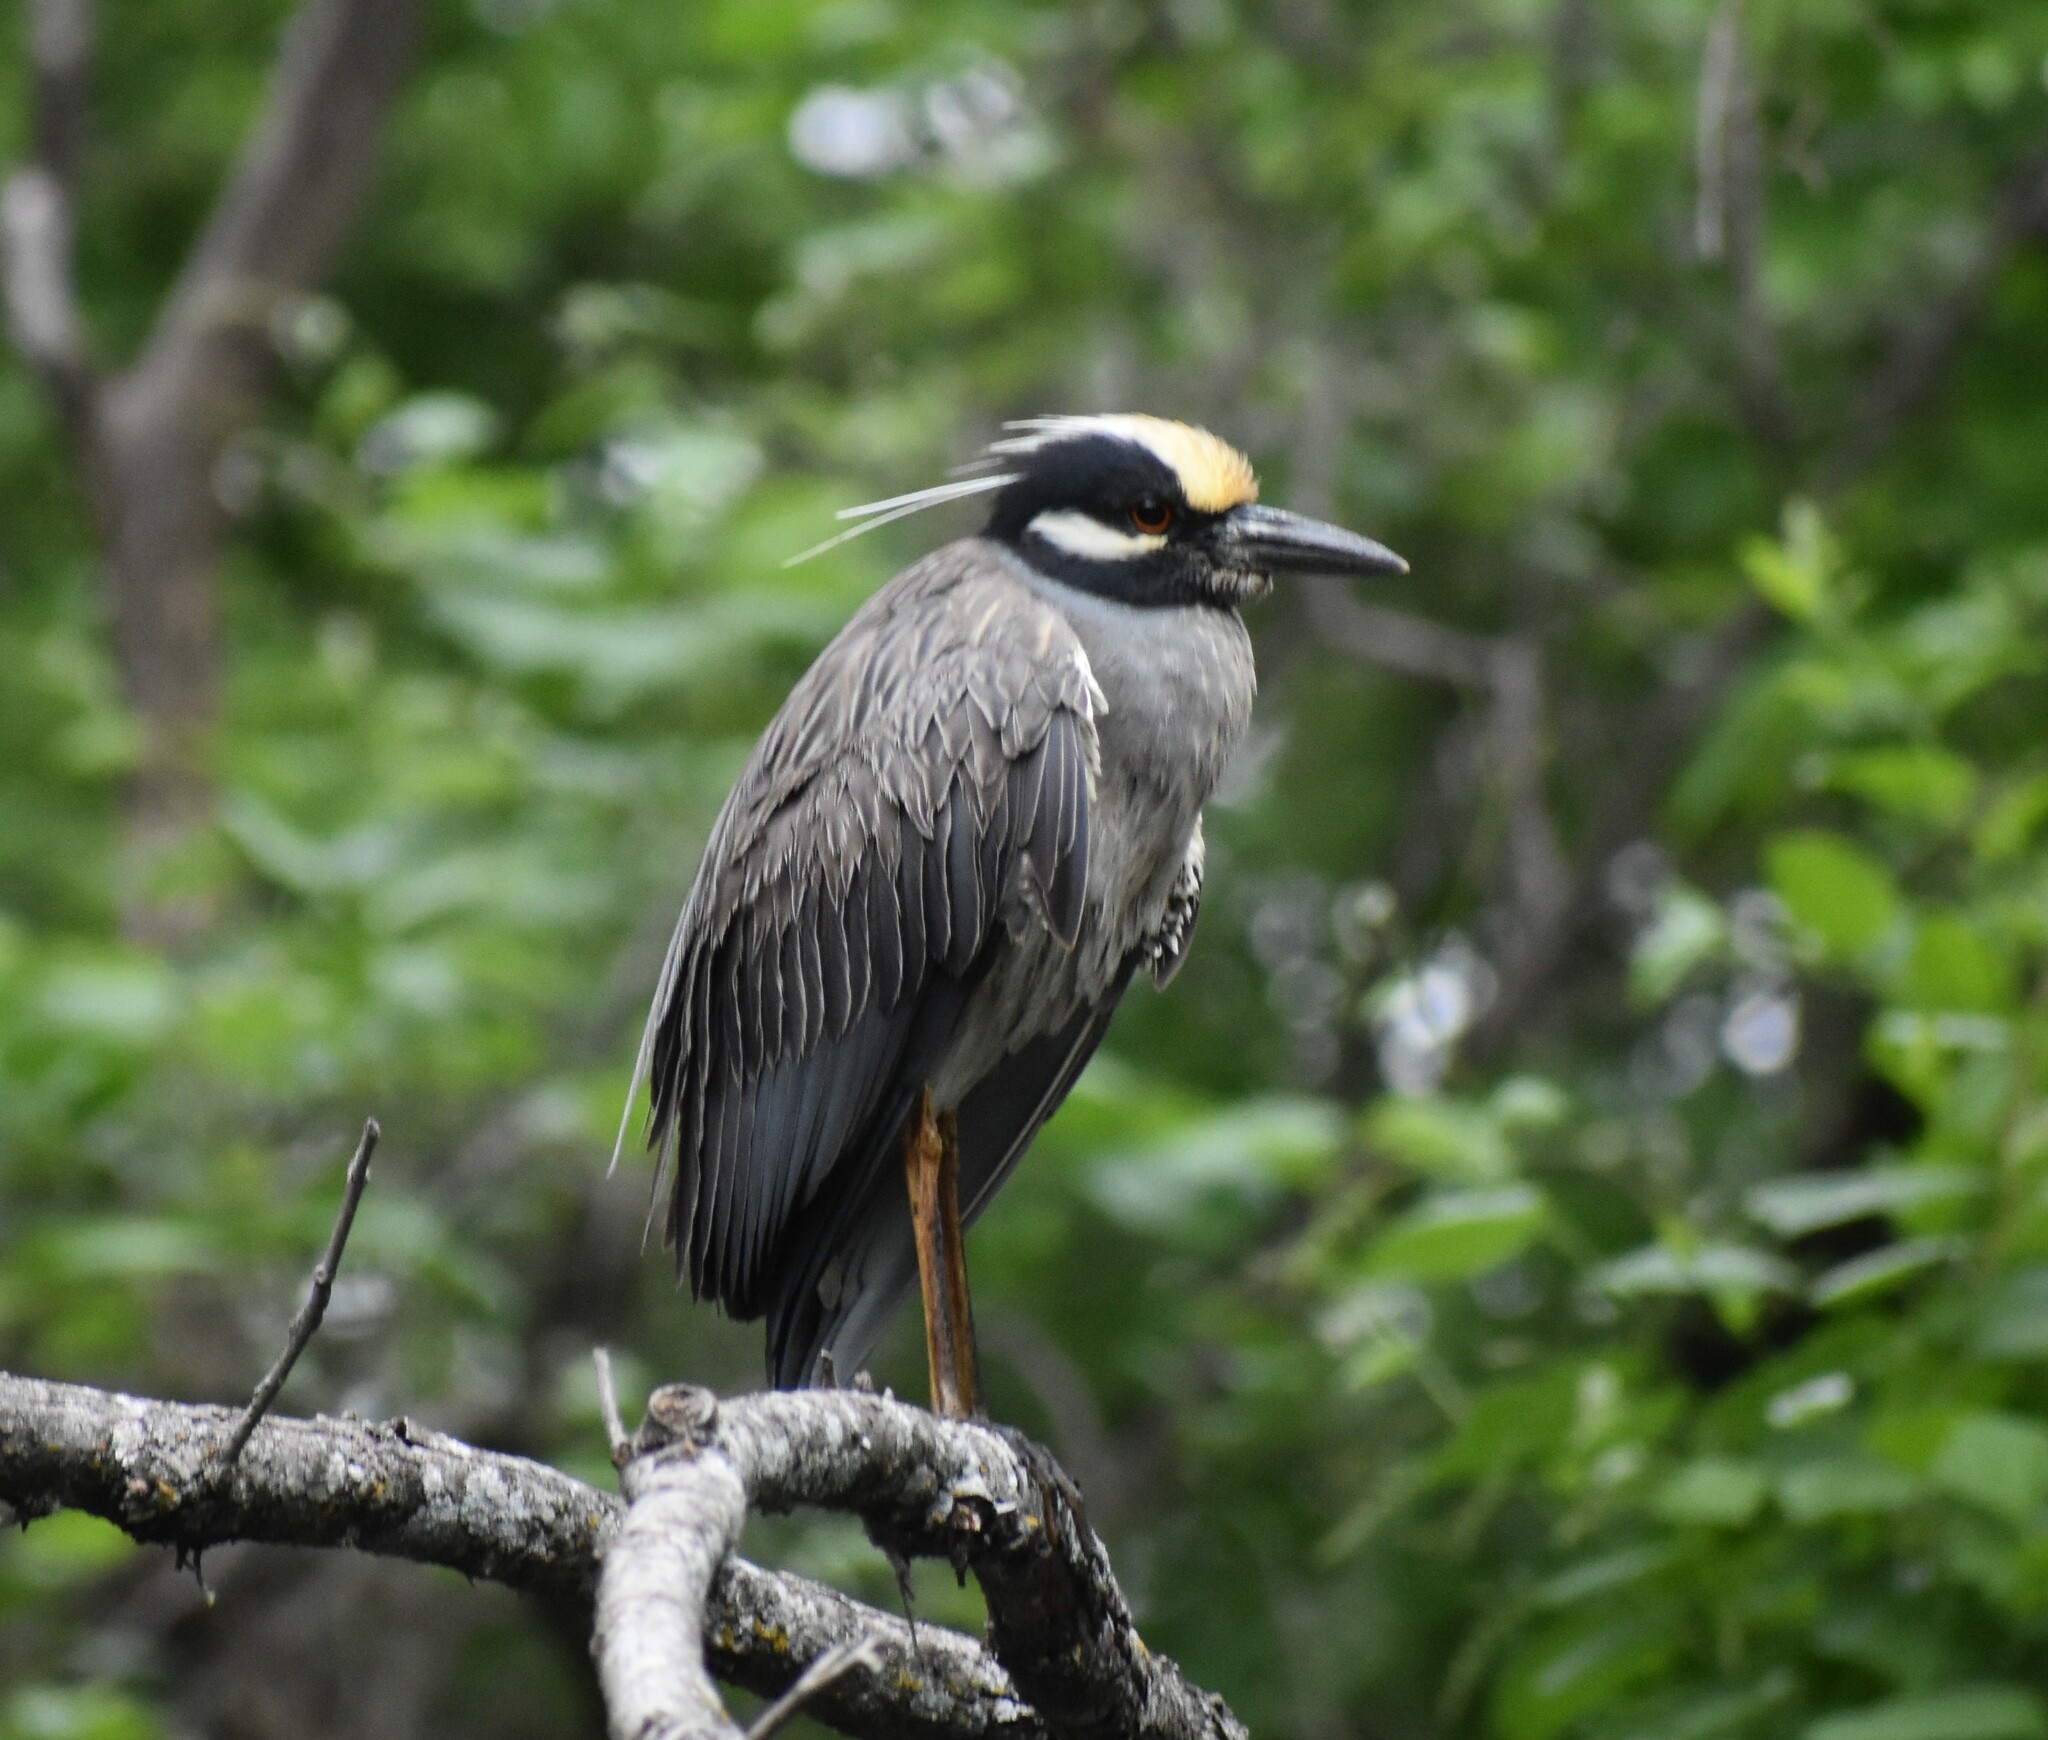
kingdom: Animalia
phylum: Chordata
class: Aves
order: Pelecaniformes
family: Ardeidae
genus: Nyctanassa
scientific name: Nyctanassa violacea
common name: Yellow-crowned night heron
